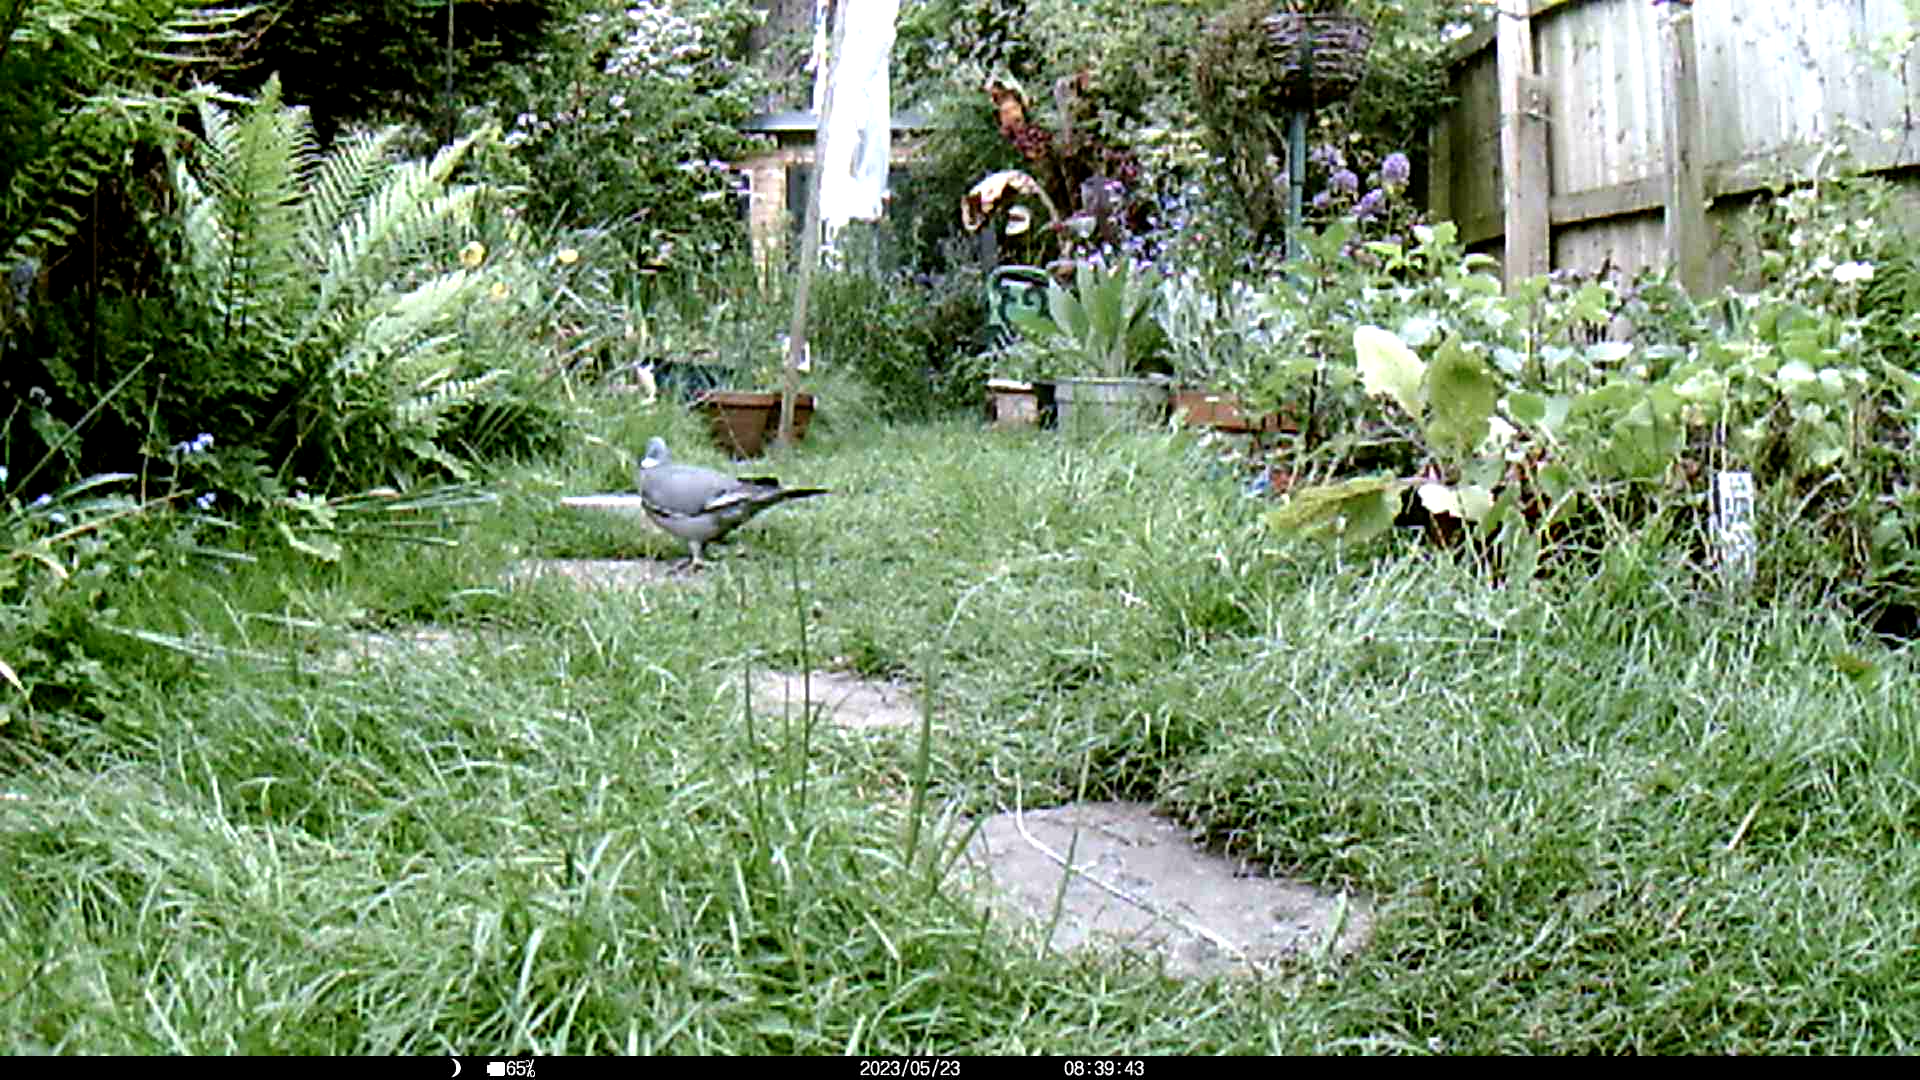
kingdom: Animalia
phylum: Chordata
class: Aves
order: Columbiformes
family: Columbidae
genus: Columba
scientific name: Columba palumbus
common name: Common wood pigeon
